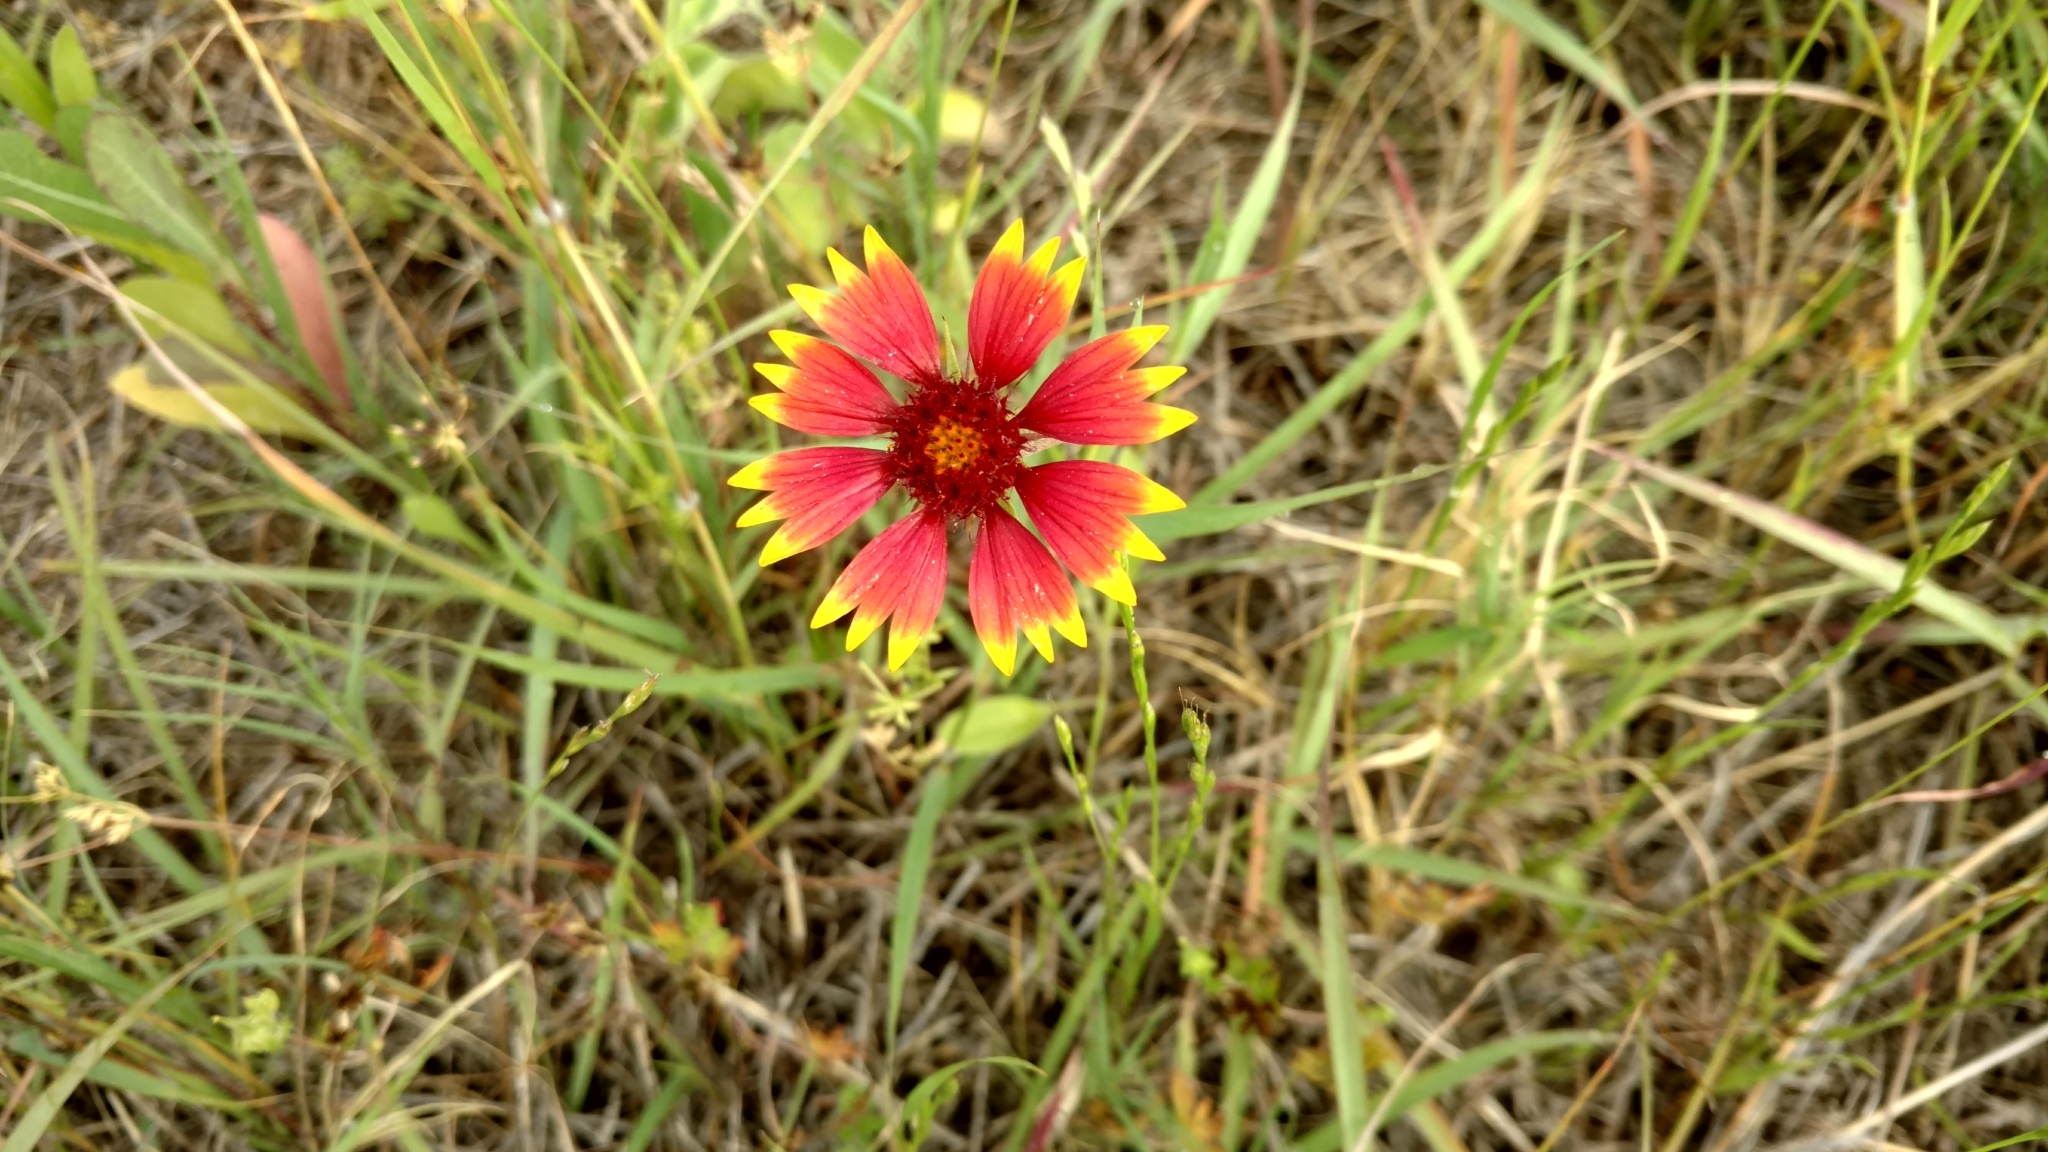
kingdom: Plantae
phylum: Tracheophyta
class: Magnoliopsida
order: Asterales
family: Asteraceae
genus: Gaillardia
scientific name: Gaillardia pulchella
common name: Firewheel
